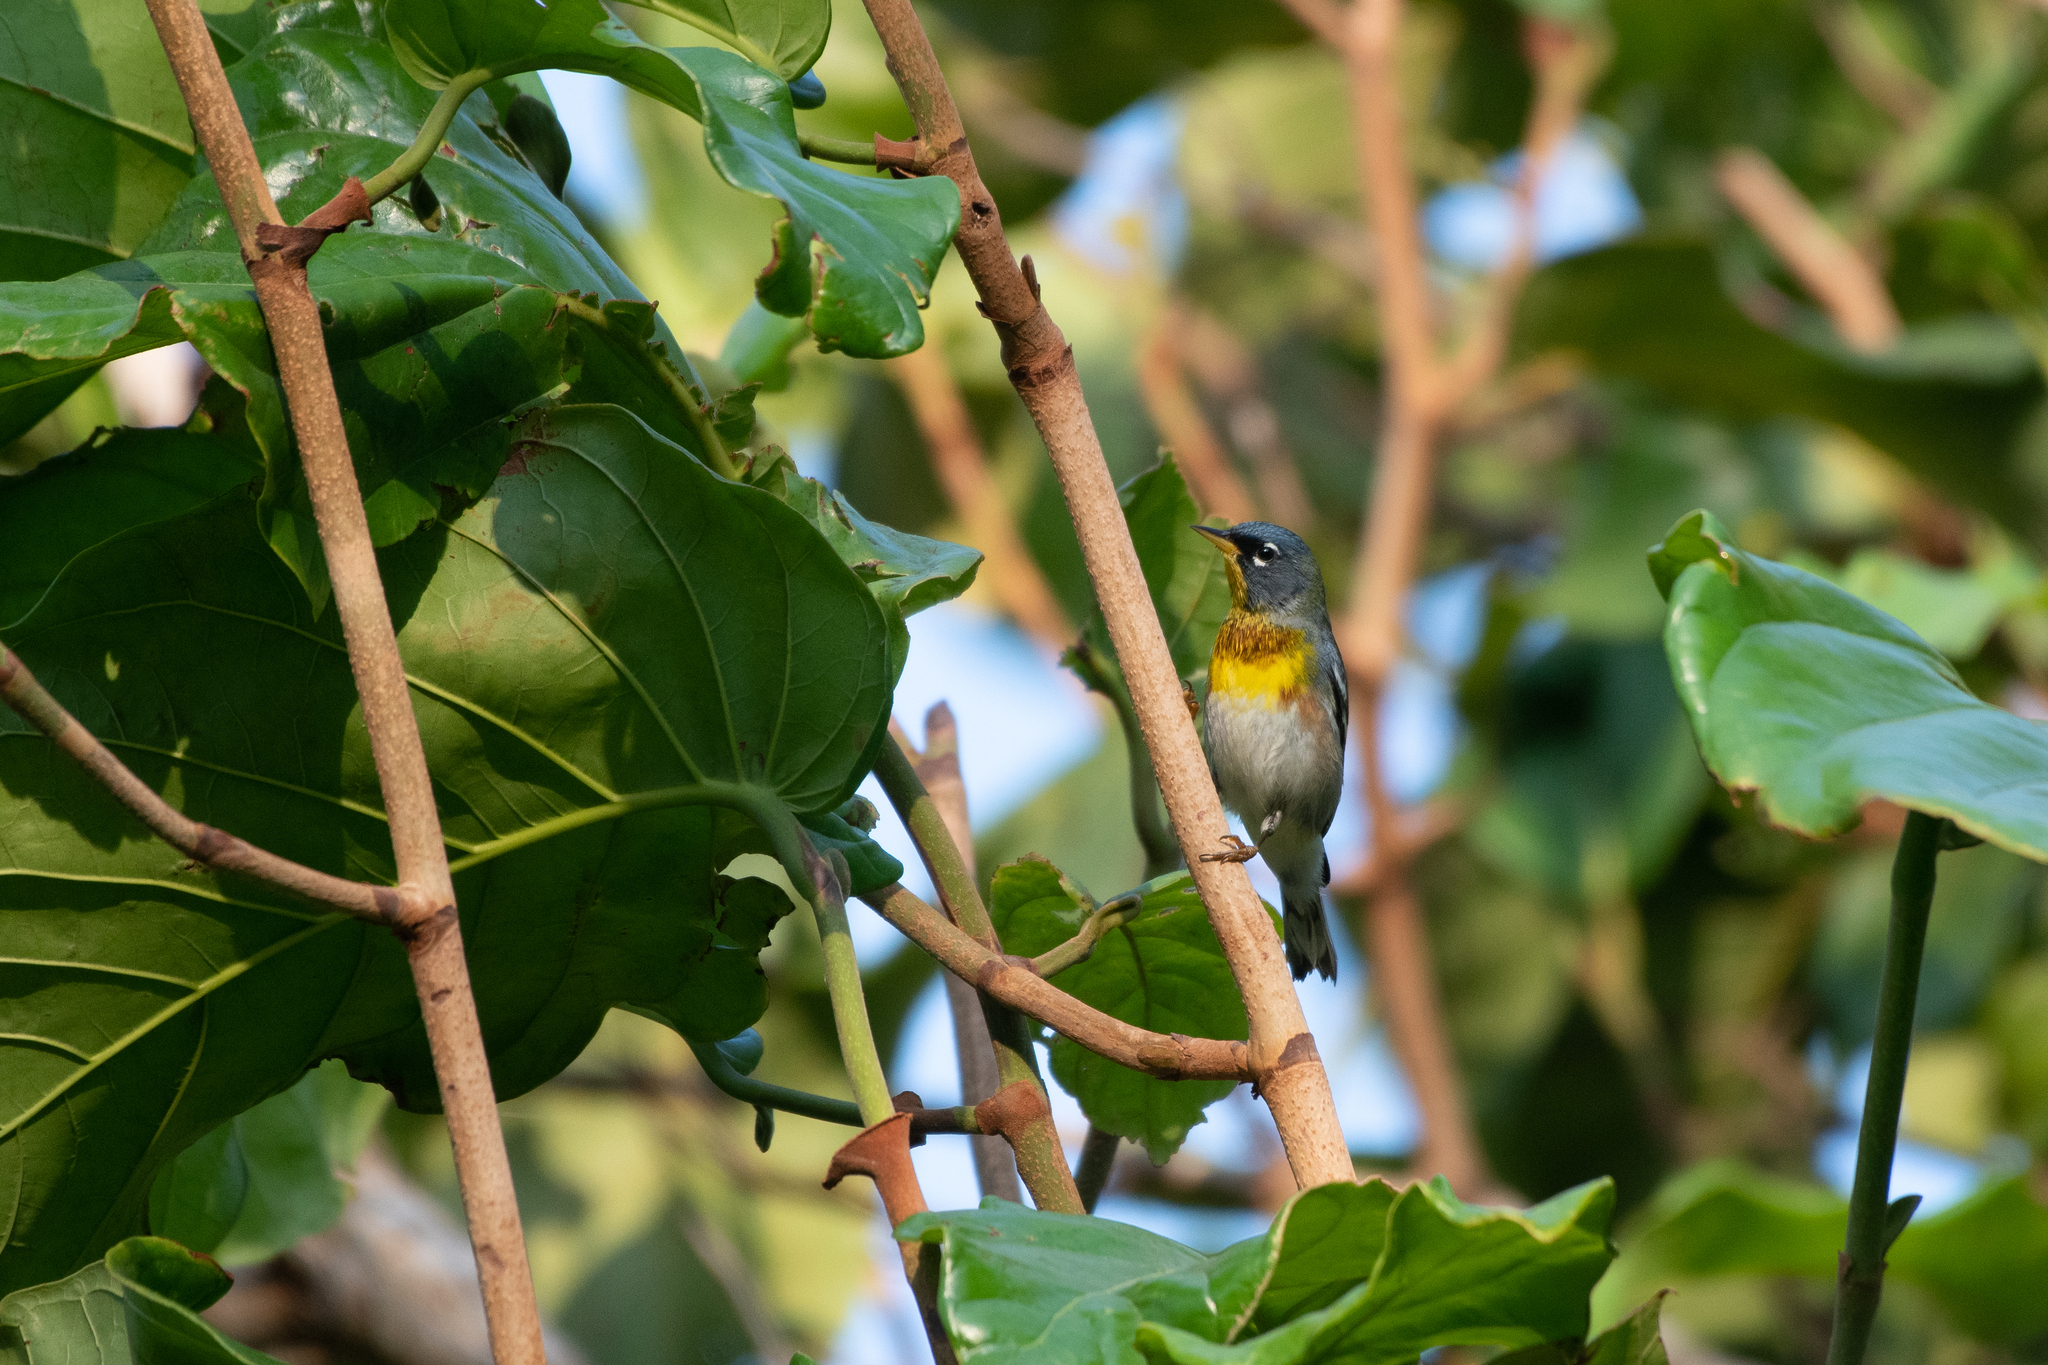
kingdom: Animalia
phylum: Chordata
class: Aves
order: Passeriformes
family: Parulidae
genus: Setophaga
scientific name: Setophaga americana
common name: Northern parula
